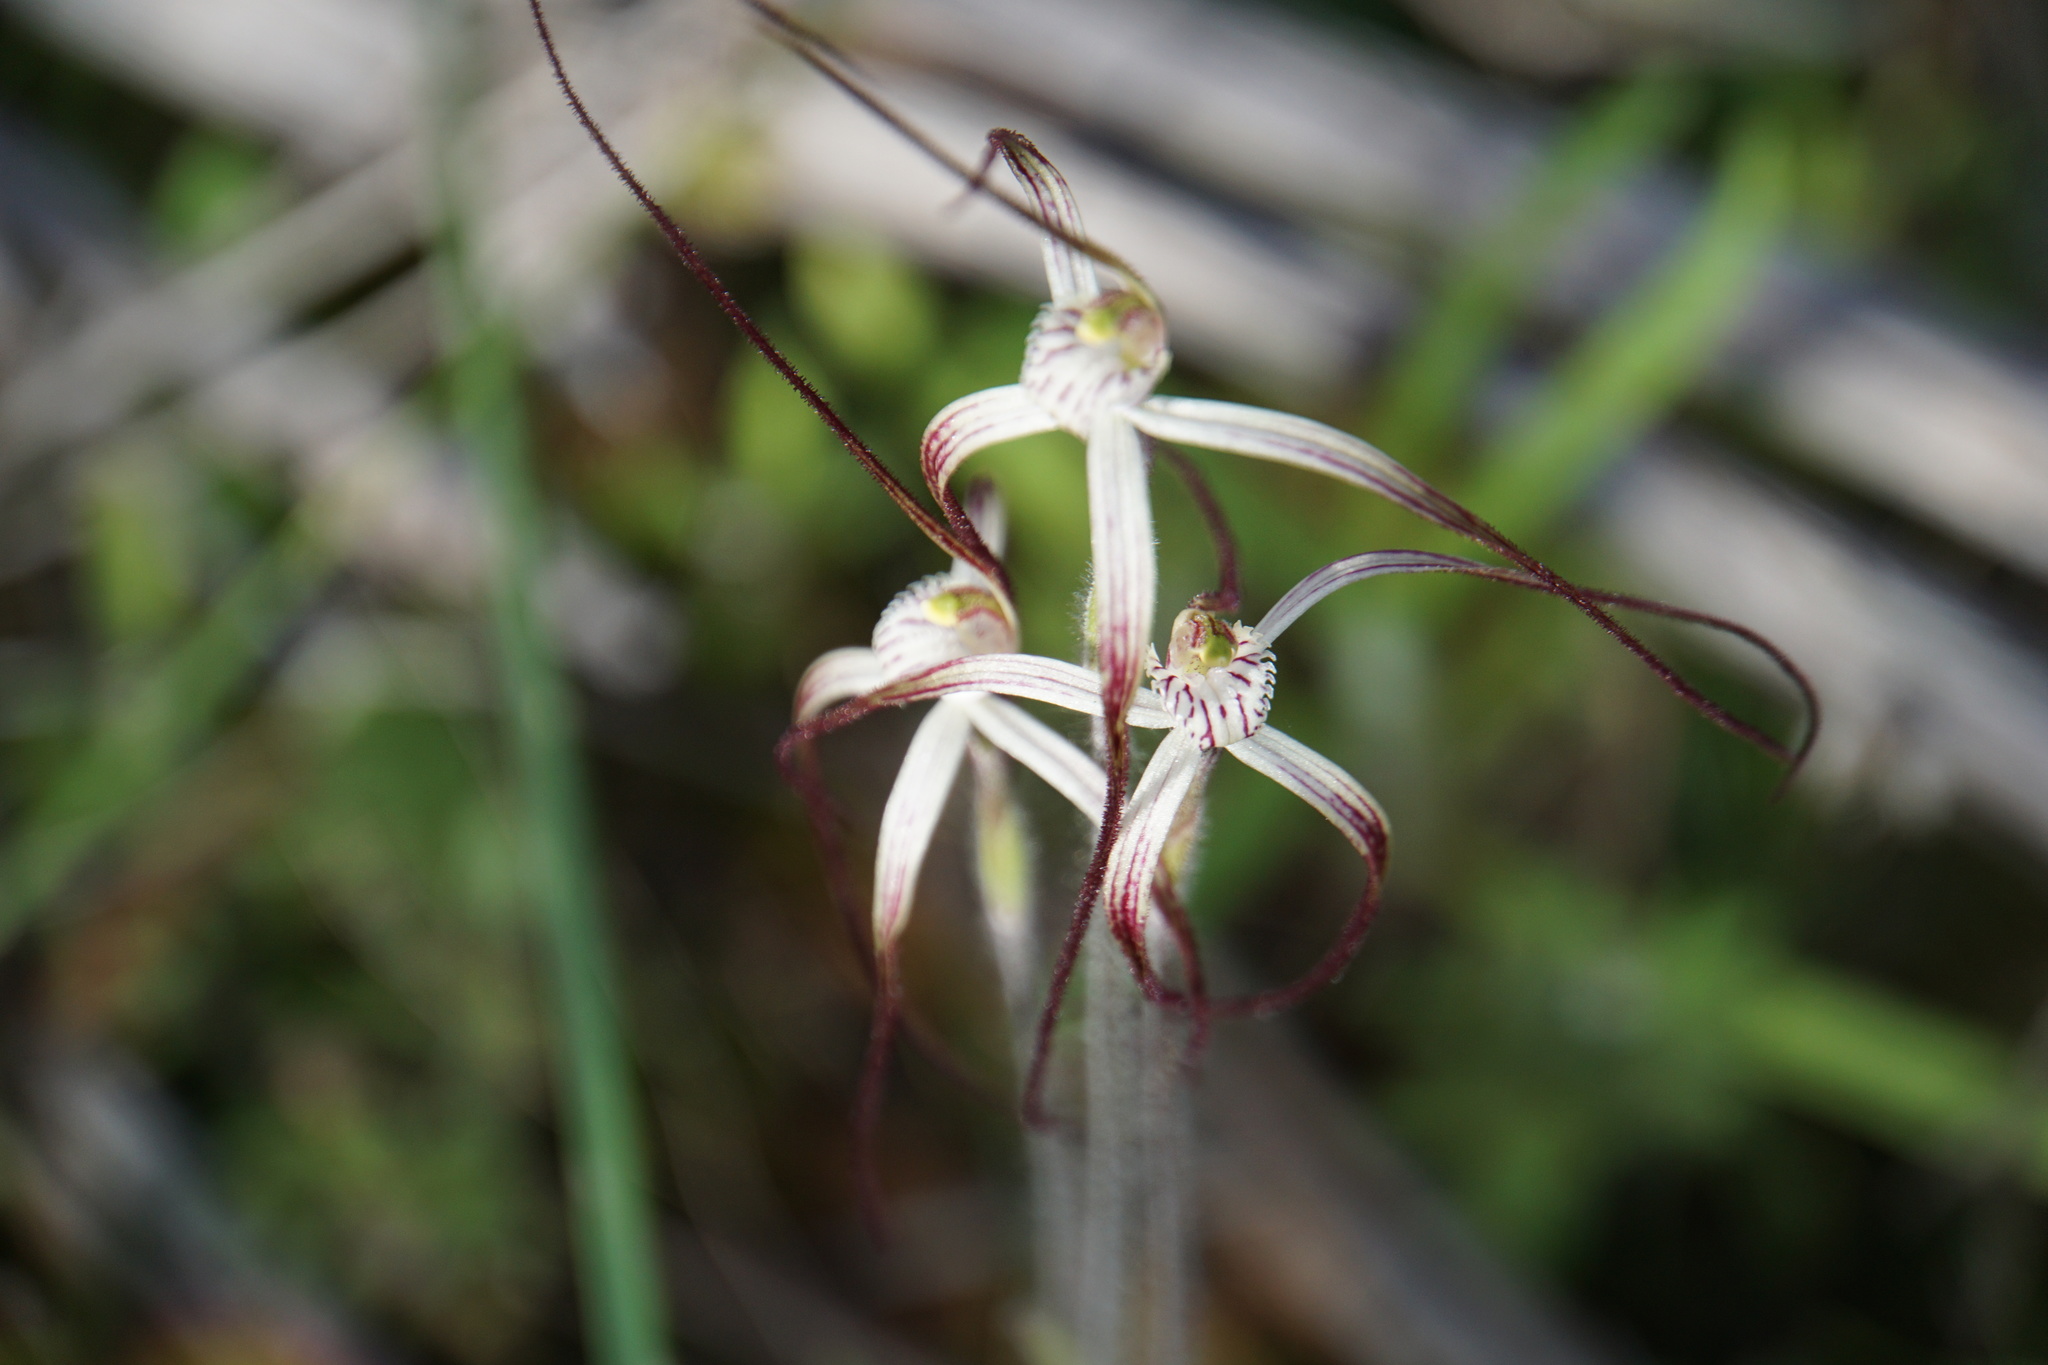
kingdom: Plantae
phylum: Tracheophyta
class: Liliopsida
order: Asparagales
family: Orchidaceae
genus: Caladenia
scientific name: Caladenia varians
